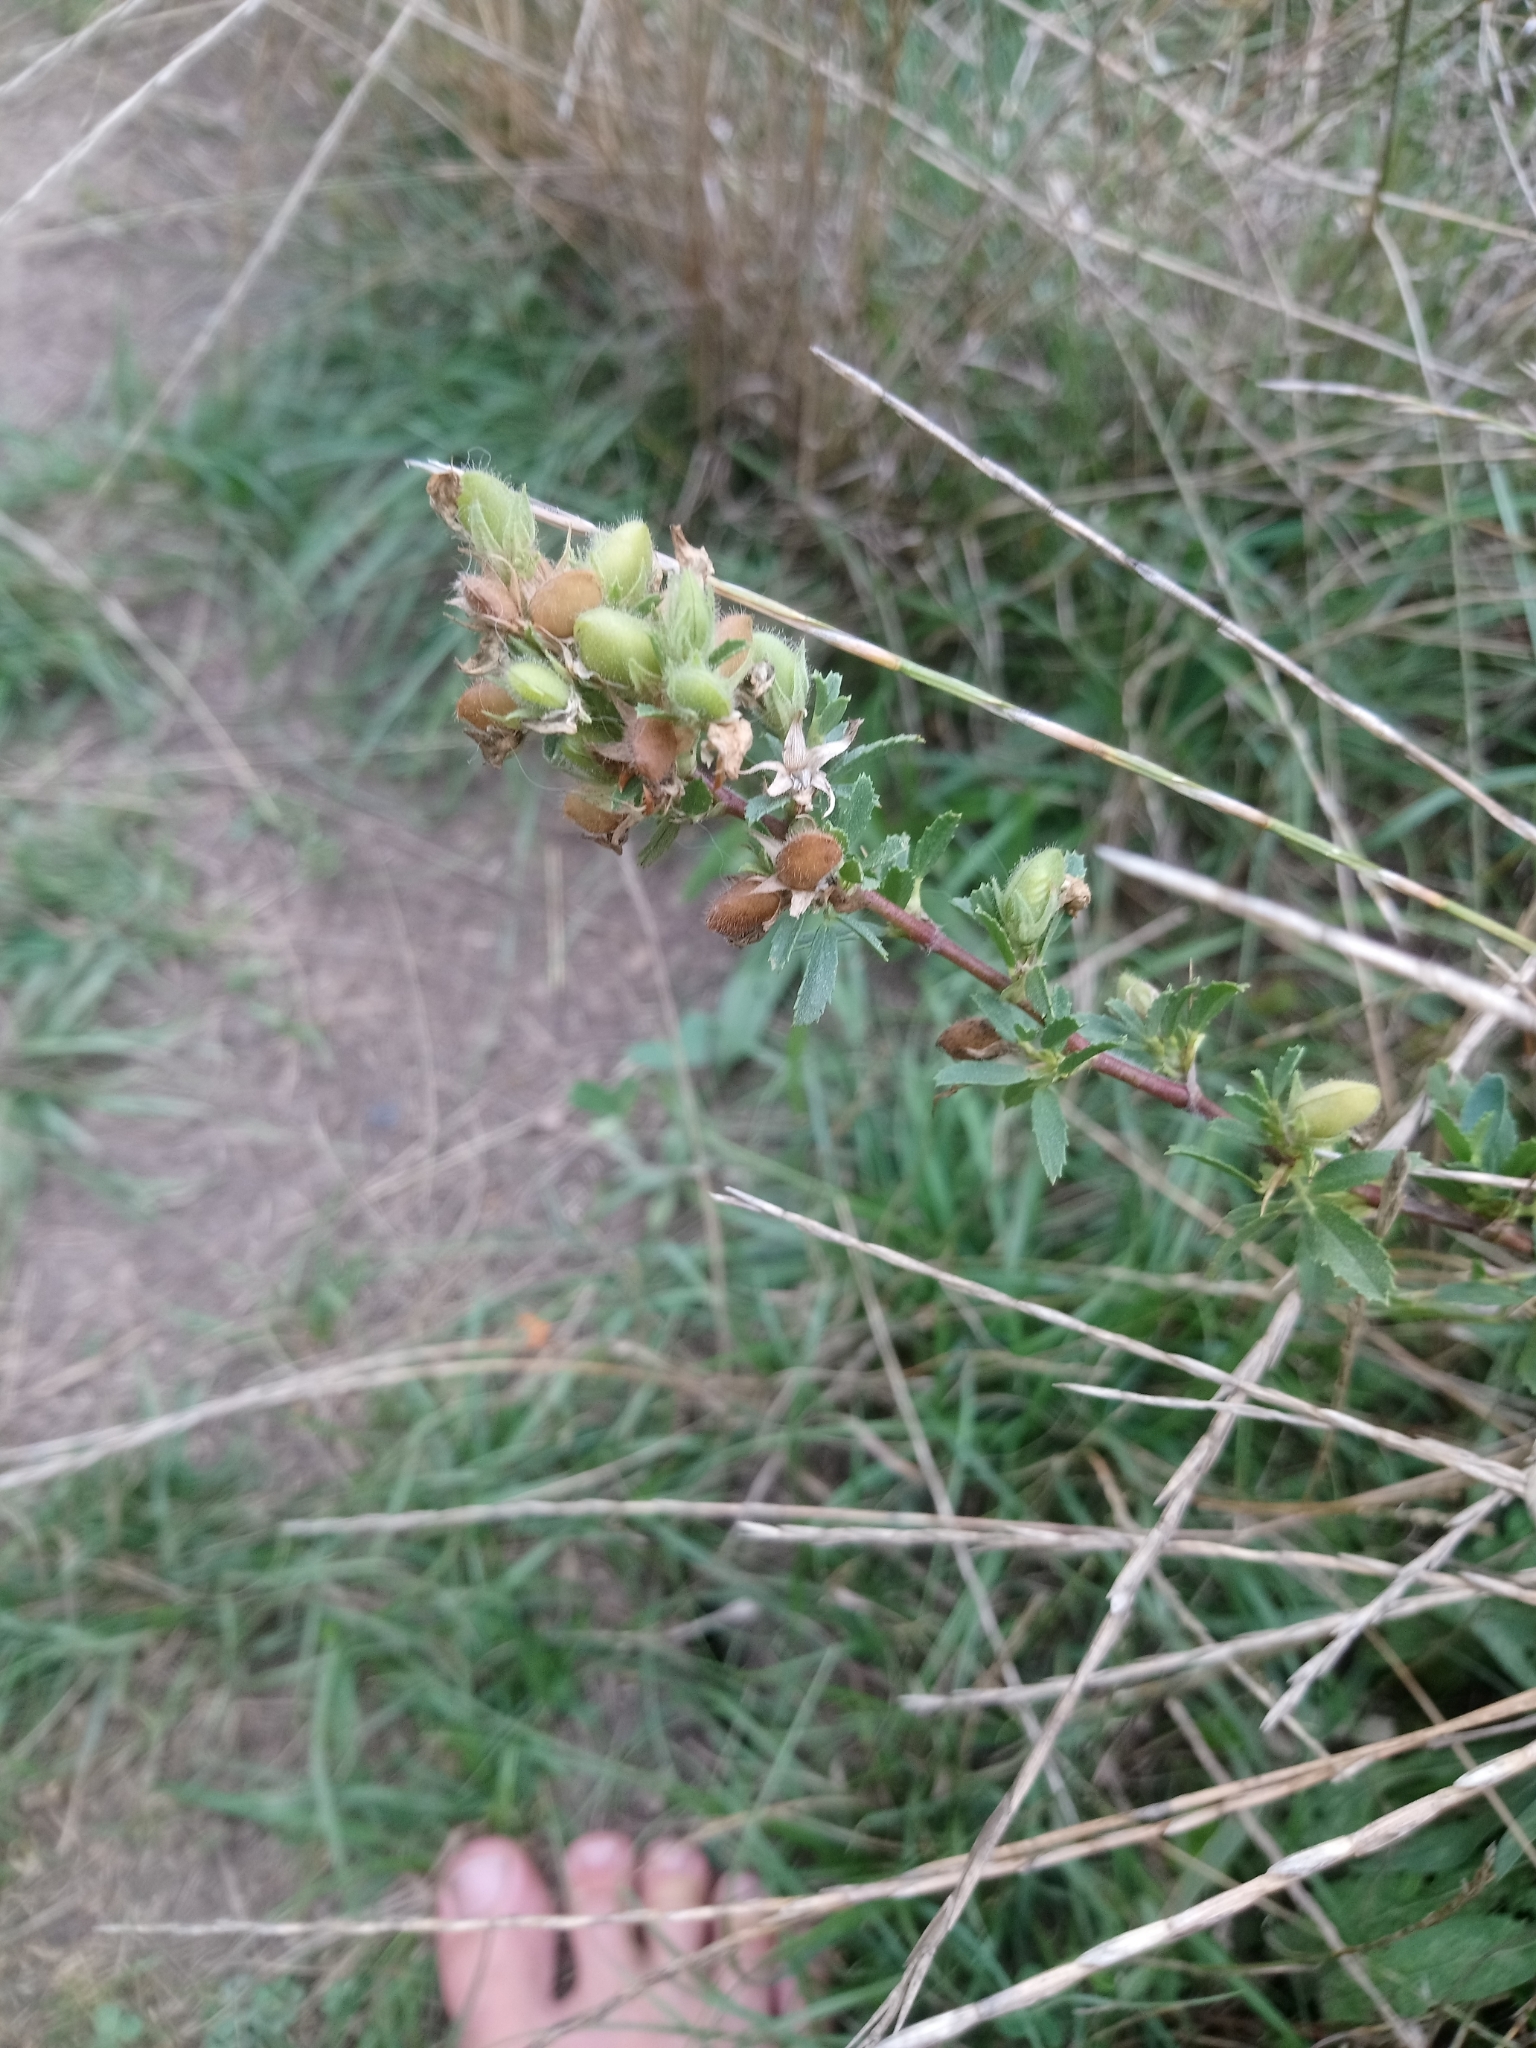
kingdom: Plantae
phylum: Tracheophyta
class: Magnoliopsida
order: Fabales
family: Fabaceae
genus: Ononis
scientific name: Ononis spinosa
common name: Spiny restharrow
